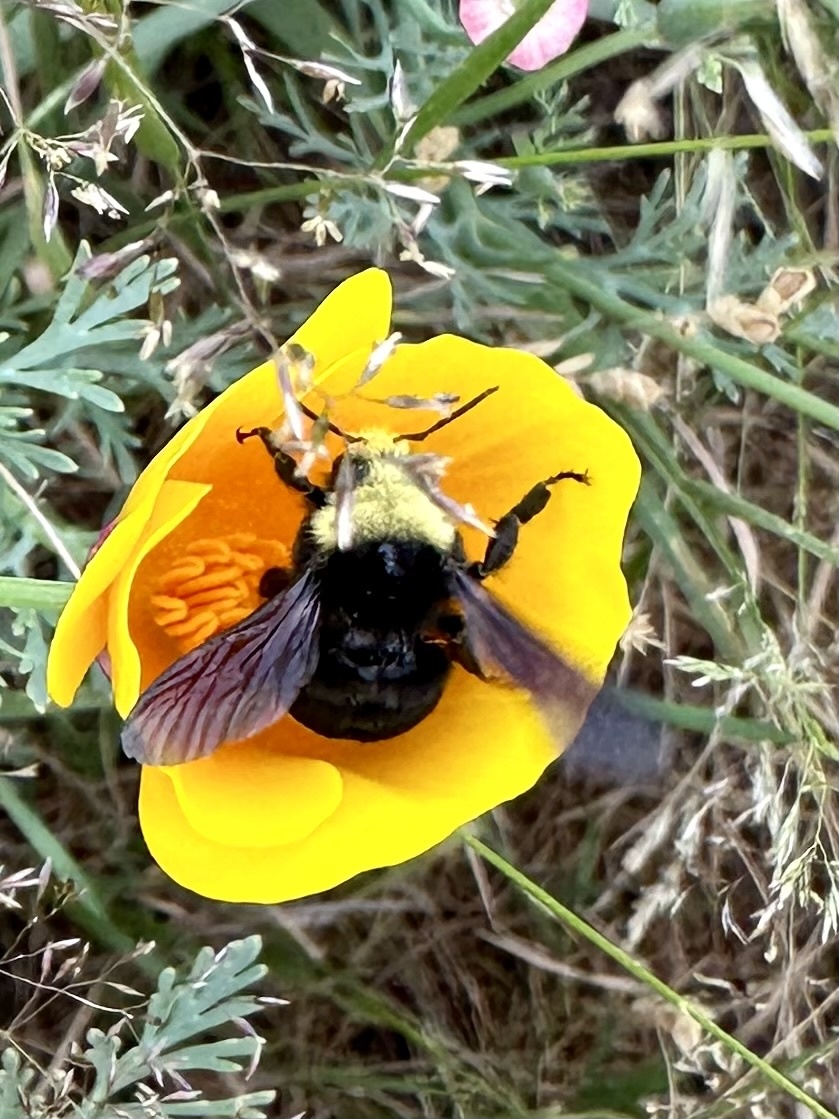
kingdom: Animalia
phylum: Arthropoda
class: Insecta
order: Hymenoptera
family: Apidae
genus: Bombus
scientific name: Bombus vosnesenskii
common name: Vosnesensky bumble bee
